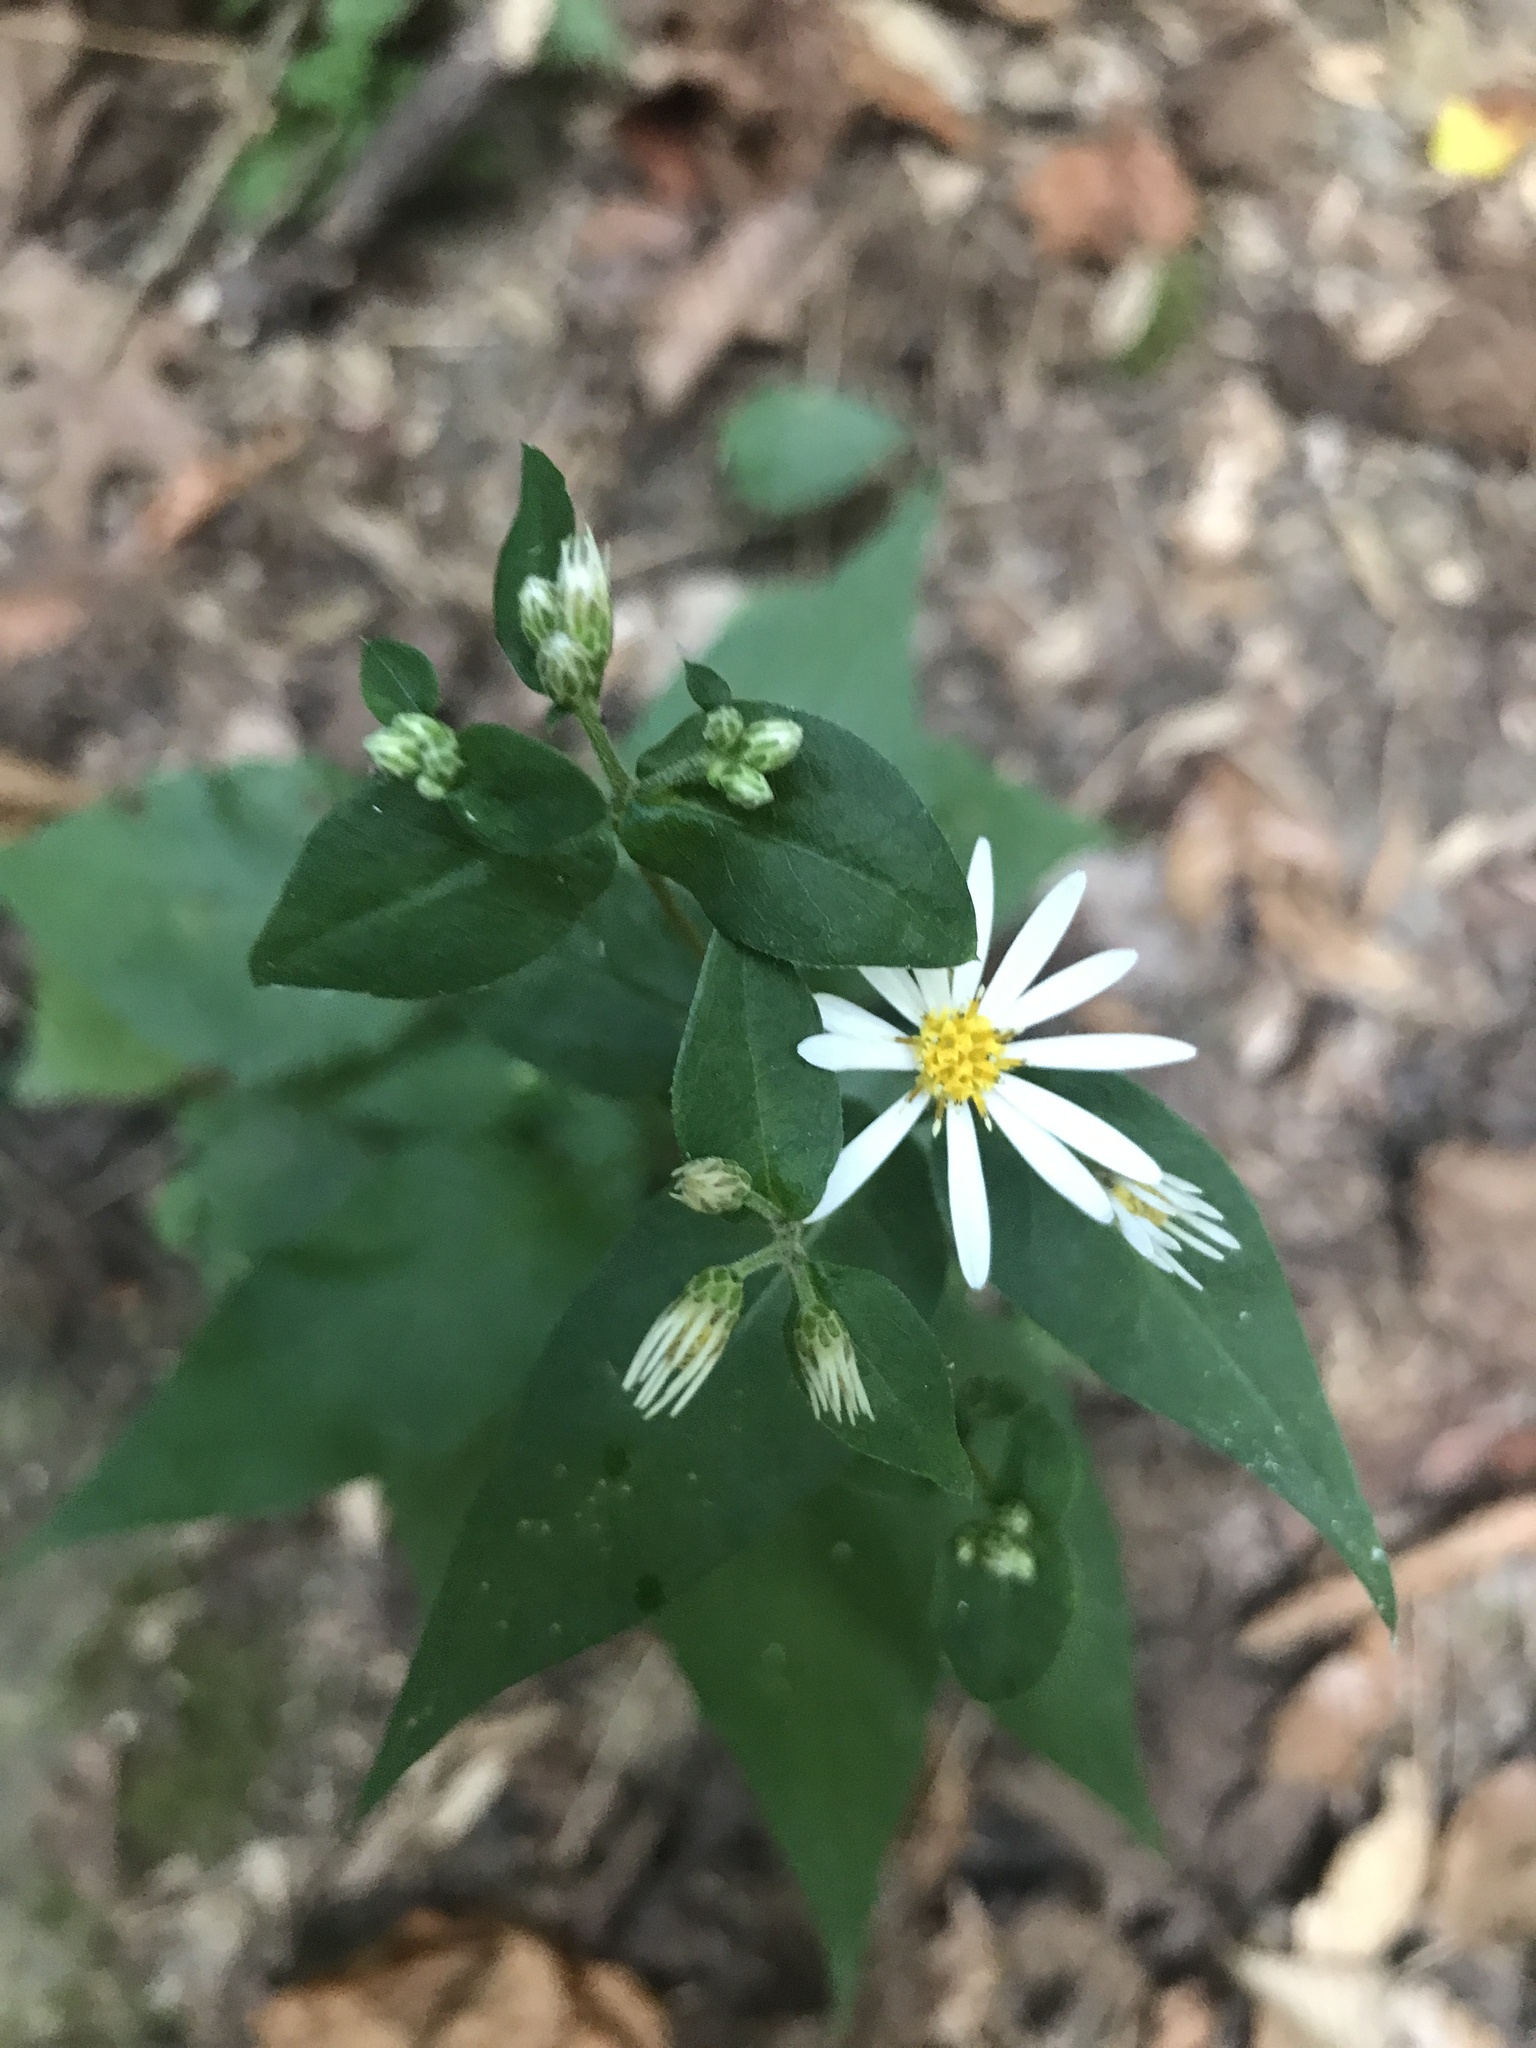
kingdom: Plantae
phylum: Tracheophyta
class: Magnoliopsida
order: Asterales
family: Asteraceae
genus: Eurybia
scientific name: Eurybia divaricata
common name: White wood aster
